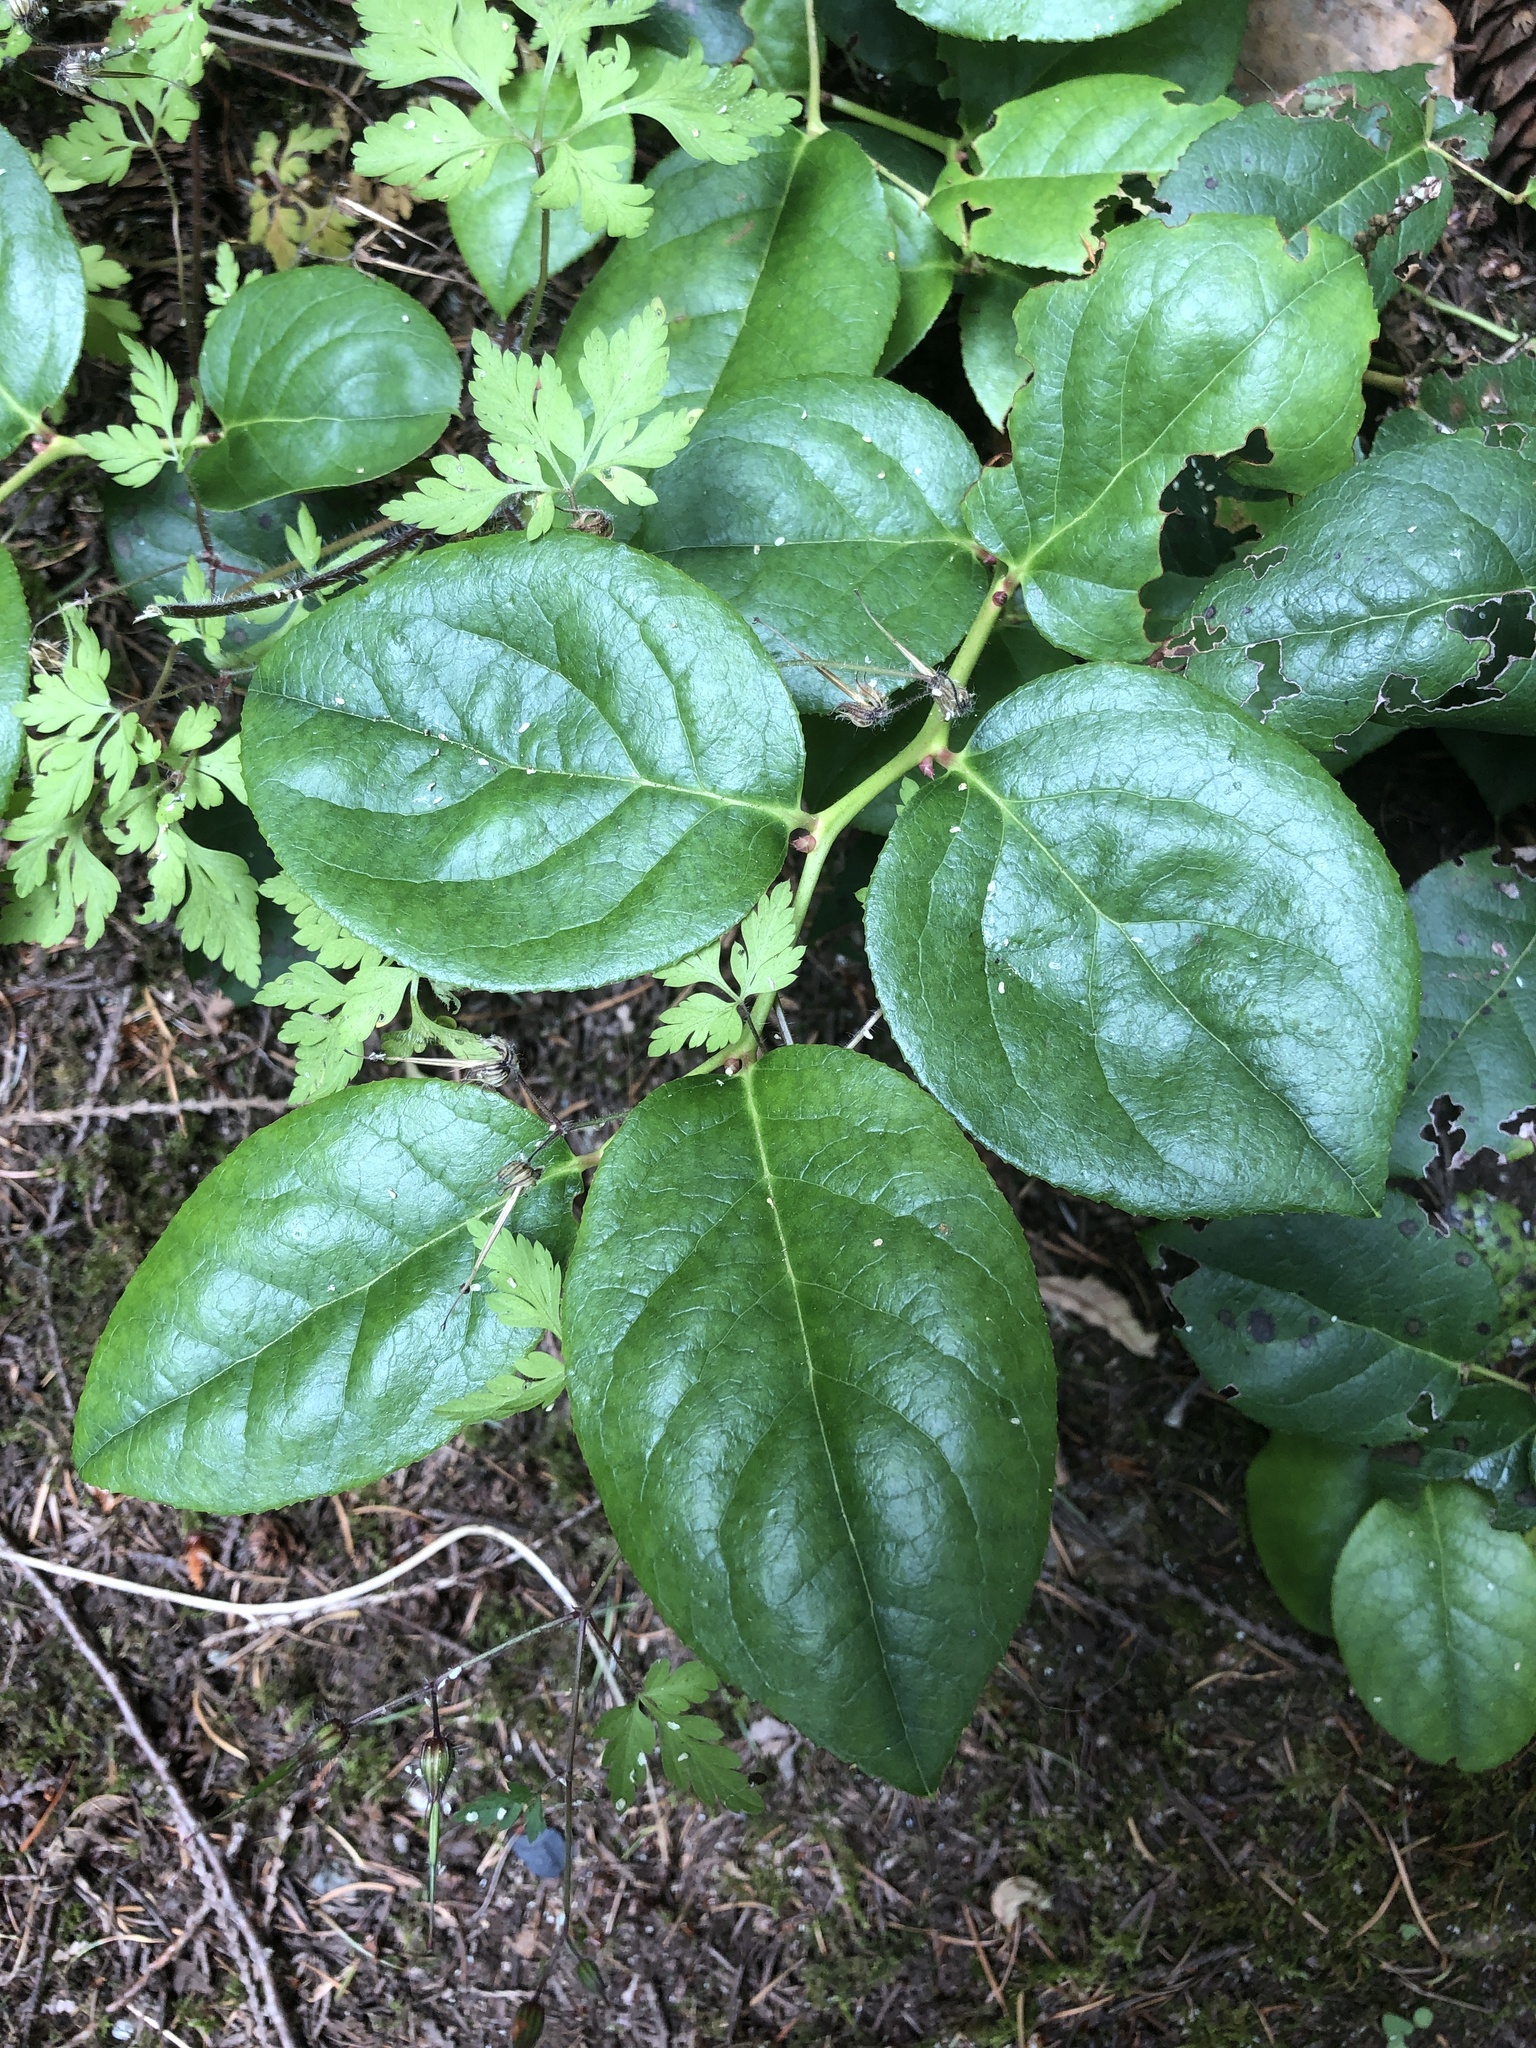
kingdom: Plantae
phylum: Tracheophyta
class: Magnoliopsida
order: Ericales
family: Ericaceae
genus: Gaultheria
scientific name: Gaultheria shallon
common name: Shallon
